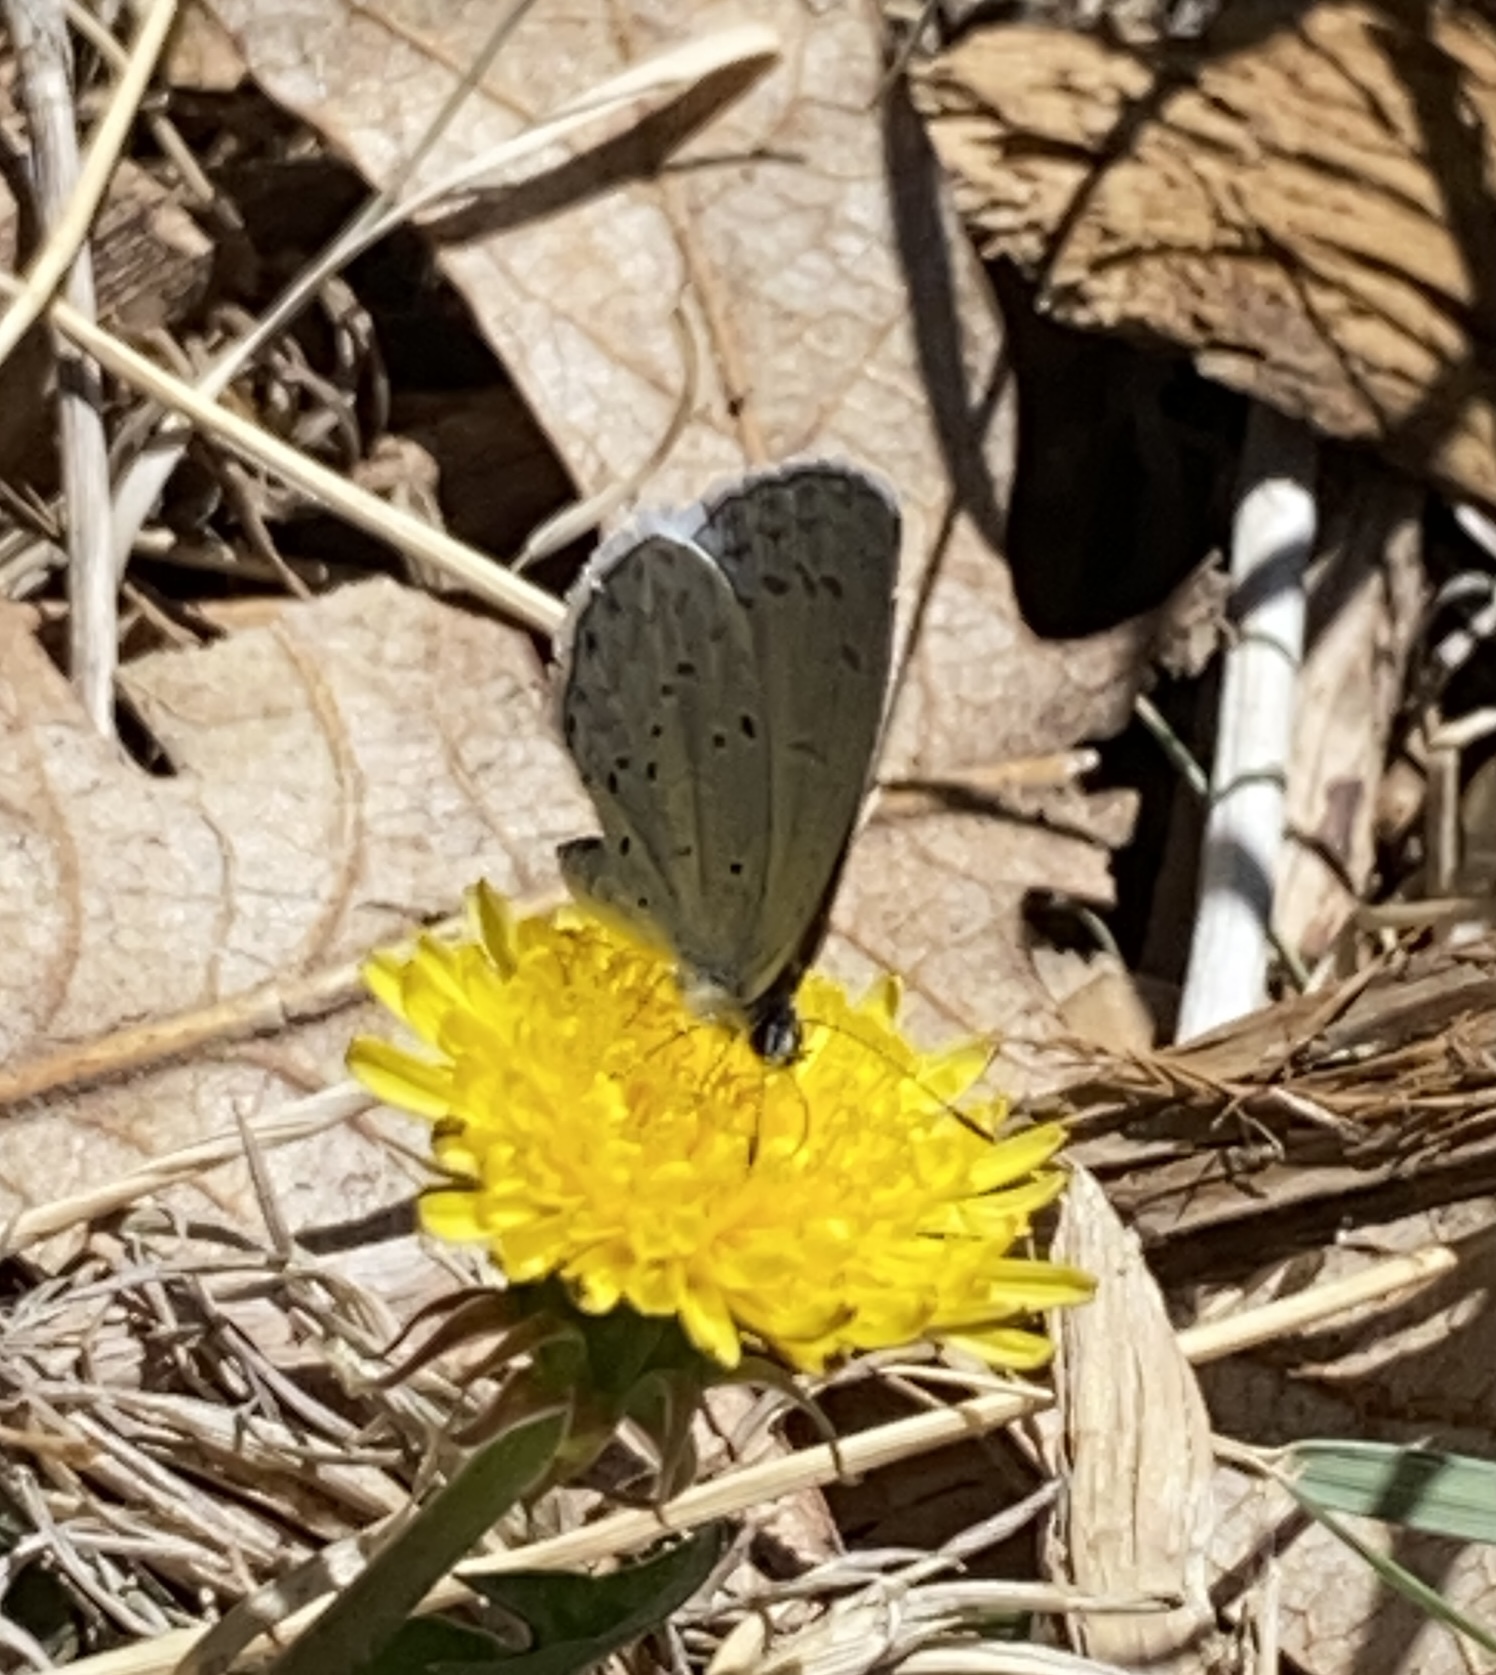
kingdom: Animalia
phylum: Arthropoda
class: Insecta
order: Lepidoptera
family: Lycaenidae
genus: Celastrina
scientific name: Celastrina ladon
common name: Spring azure
